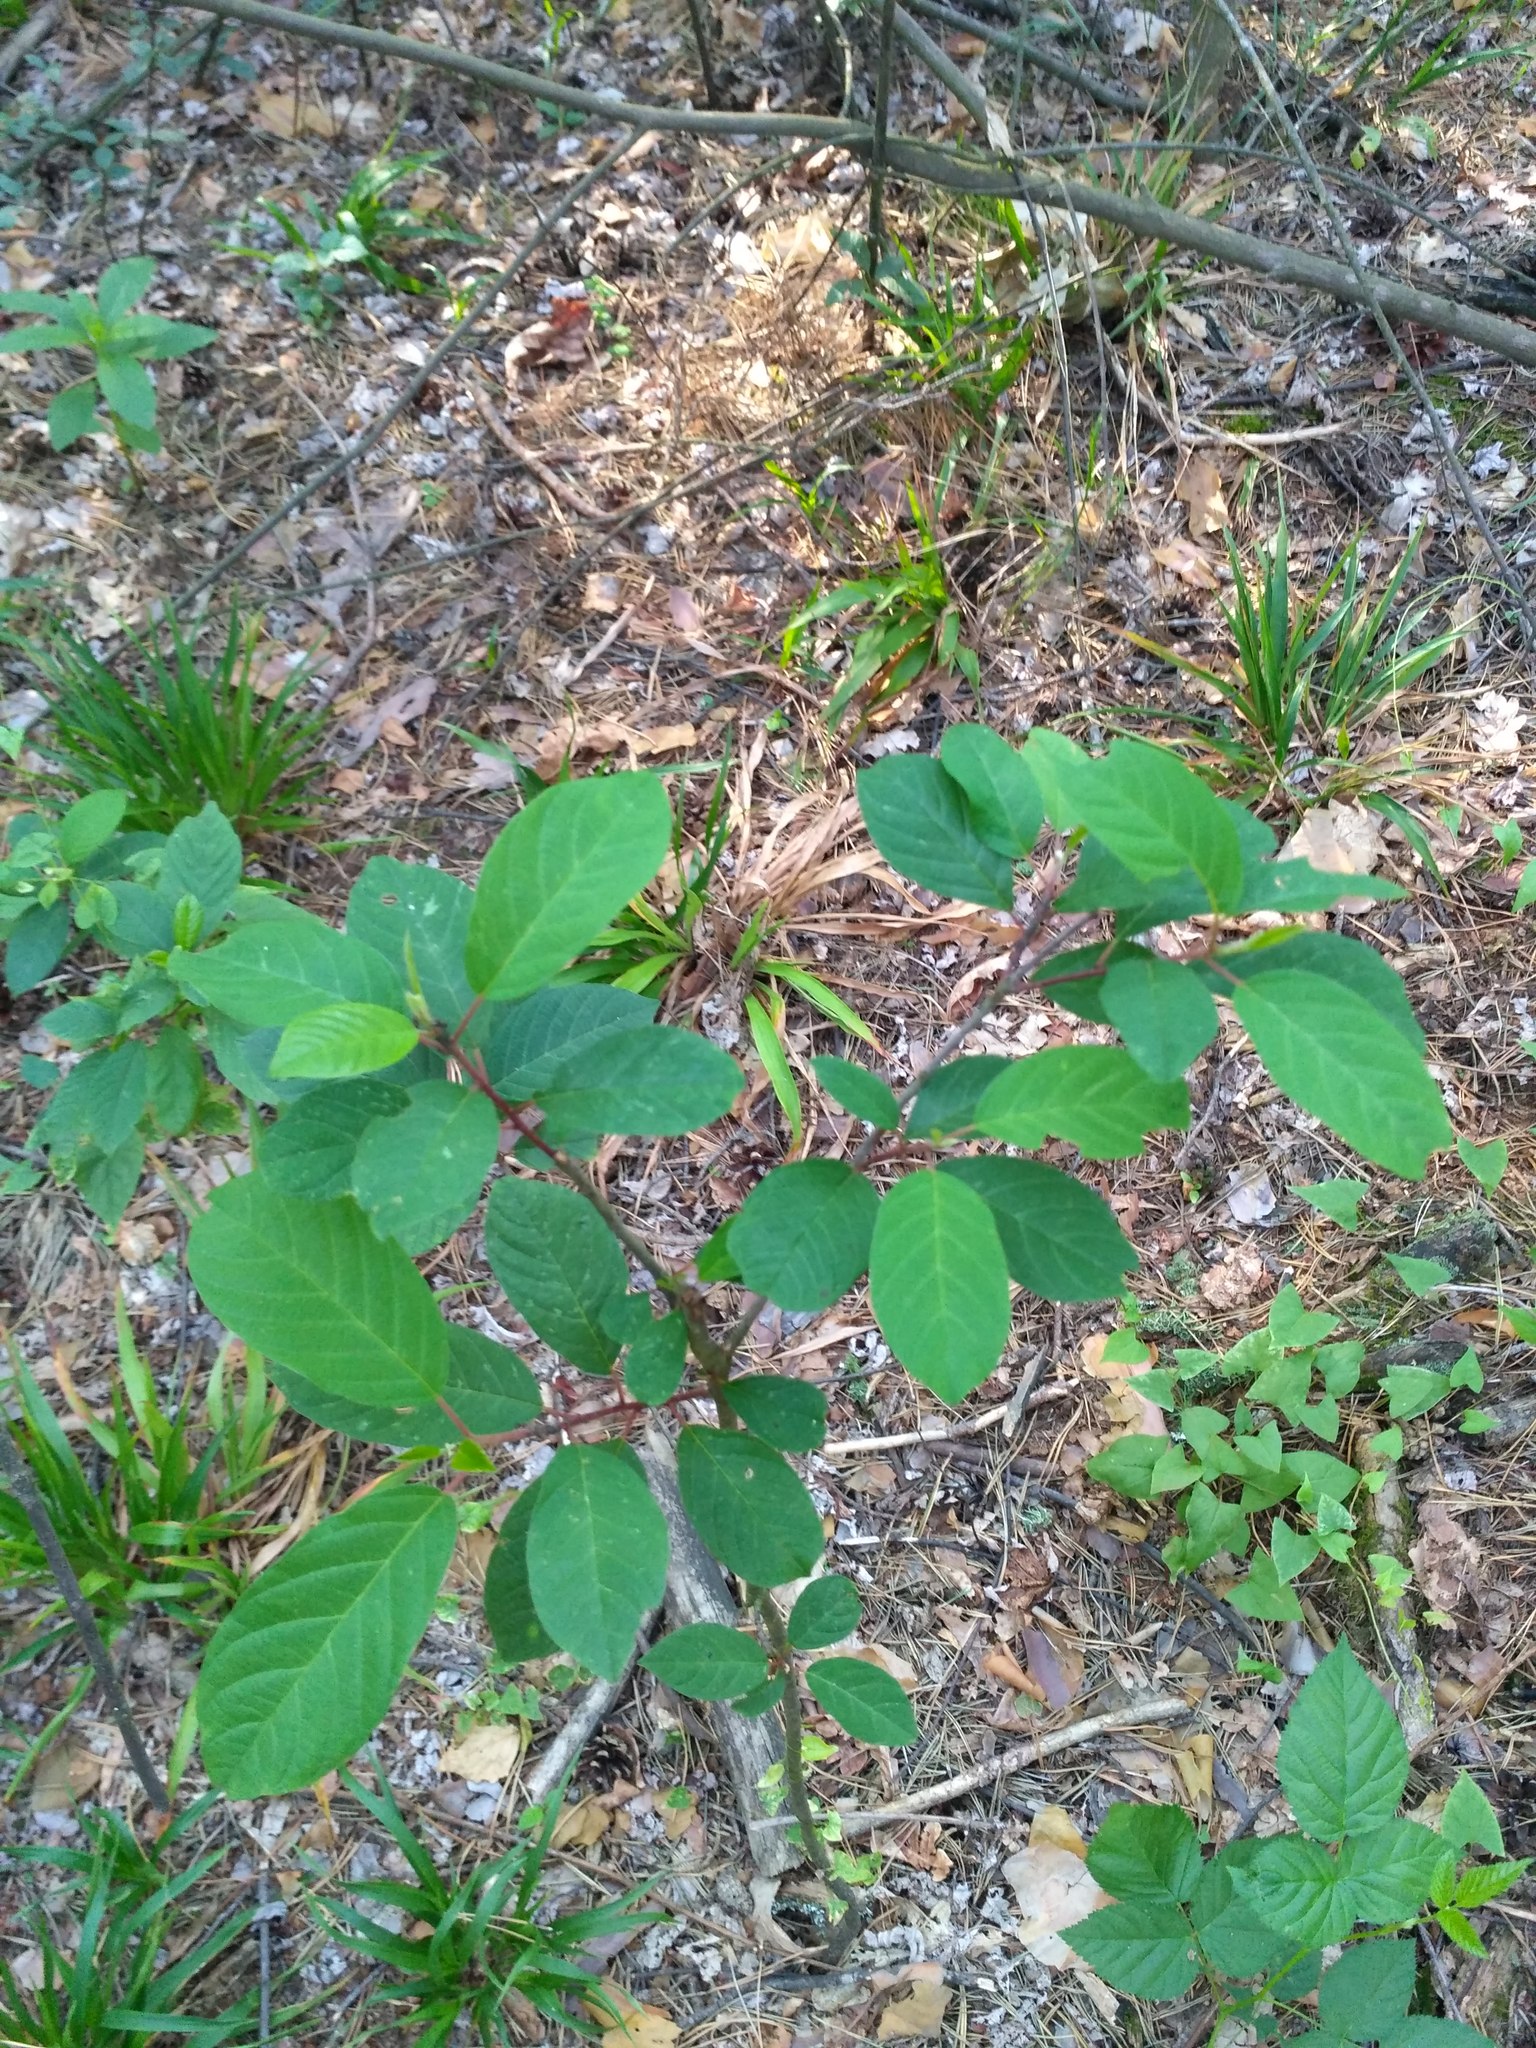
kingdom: Plantae
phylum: Tracheophyta
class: Magnoliopsida
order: Rosales
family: Rhamnaceae
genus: Frangula
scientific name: Frangula alnus
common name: Alder buckthorn
